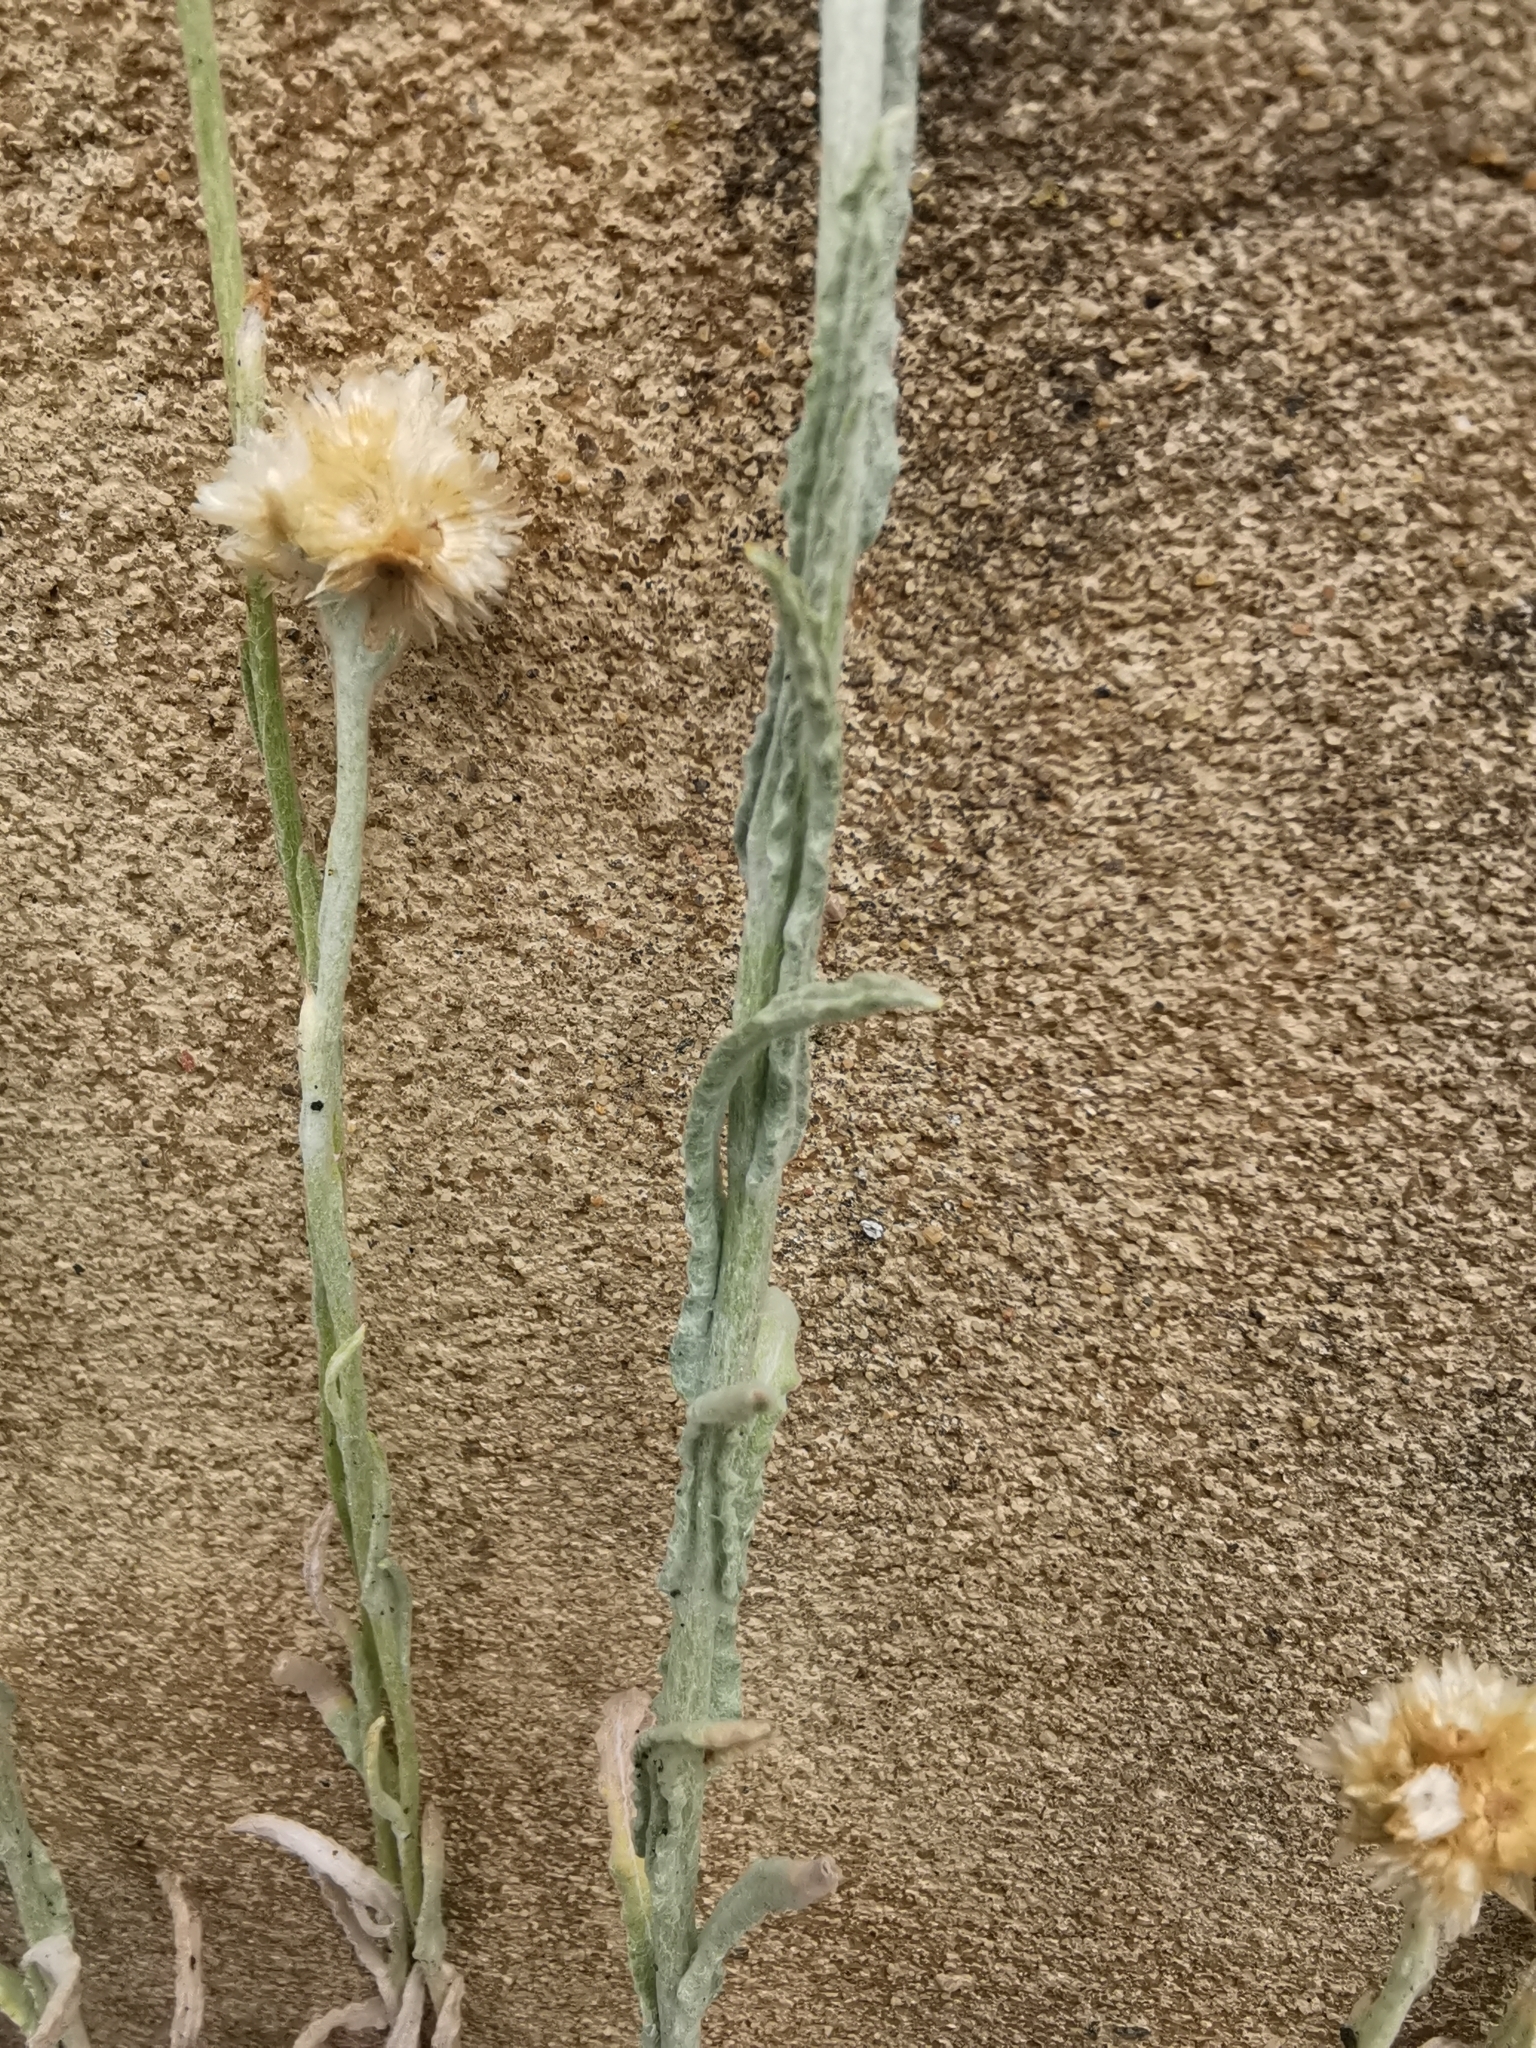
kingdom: Plantae
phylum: Tracheophyta
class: Magnoliopsida
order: Asterales
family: Asteraceae
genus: Helichrysum
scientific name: Helichrysum luteoalbum
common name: Daisy
